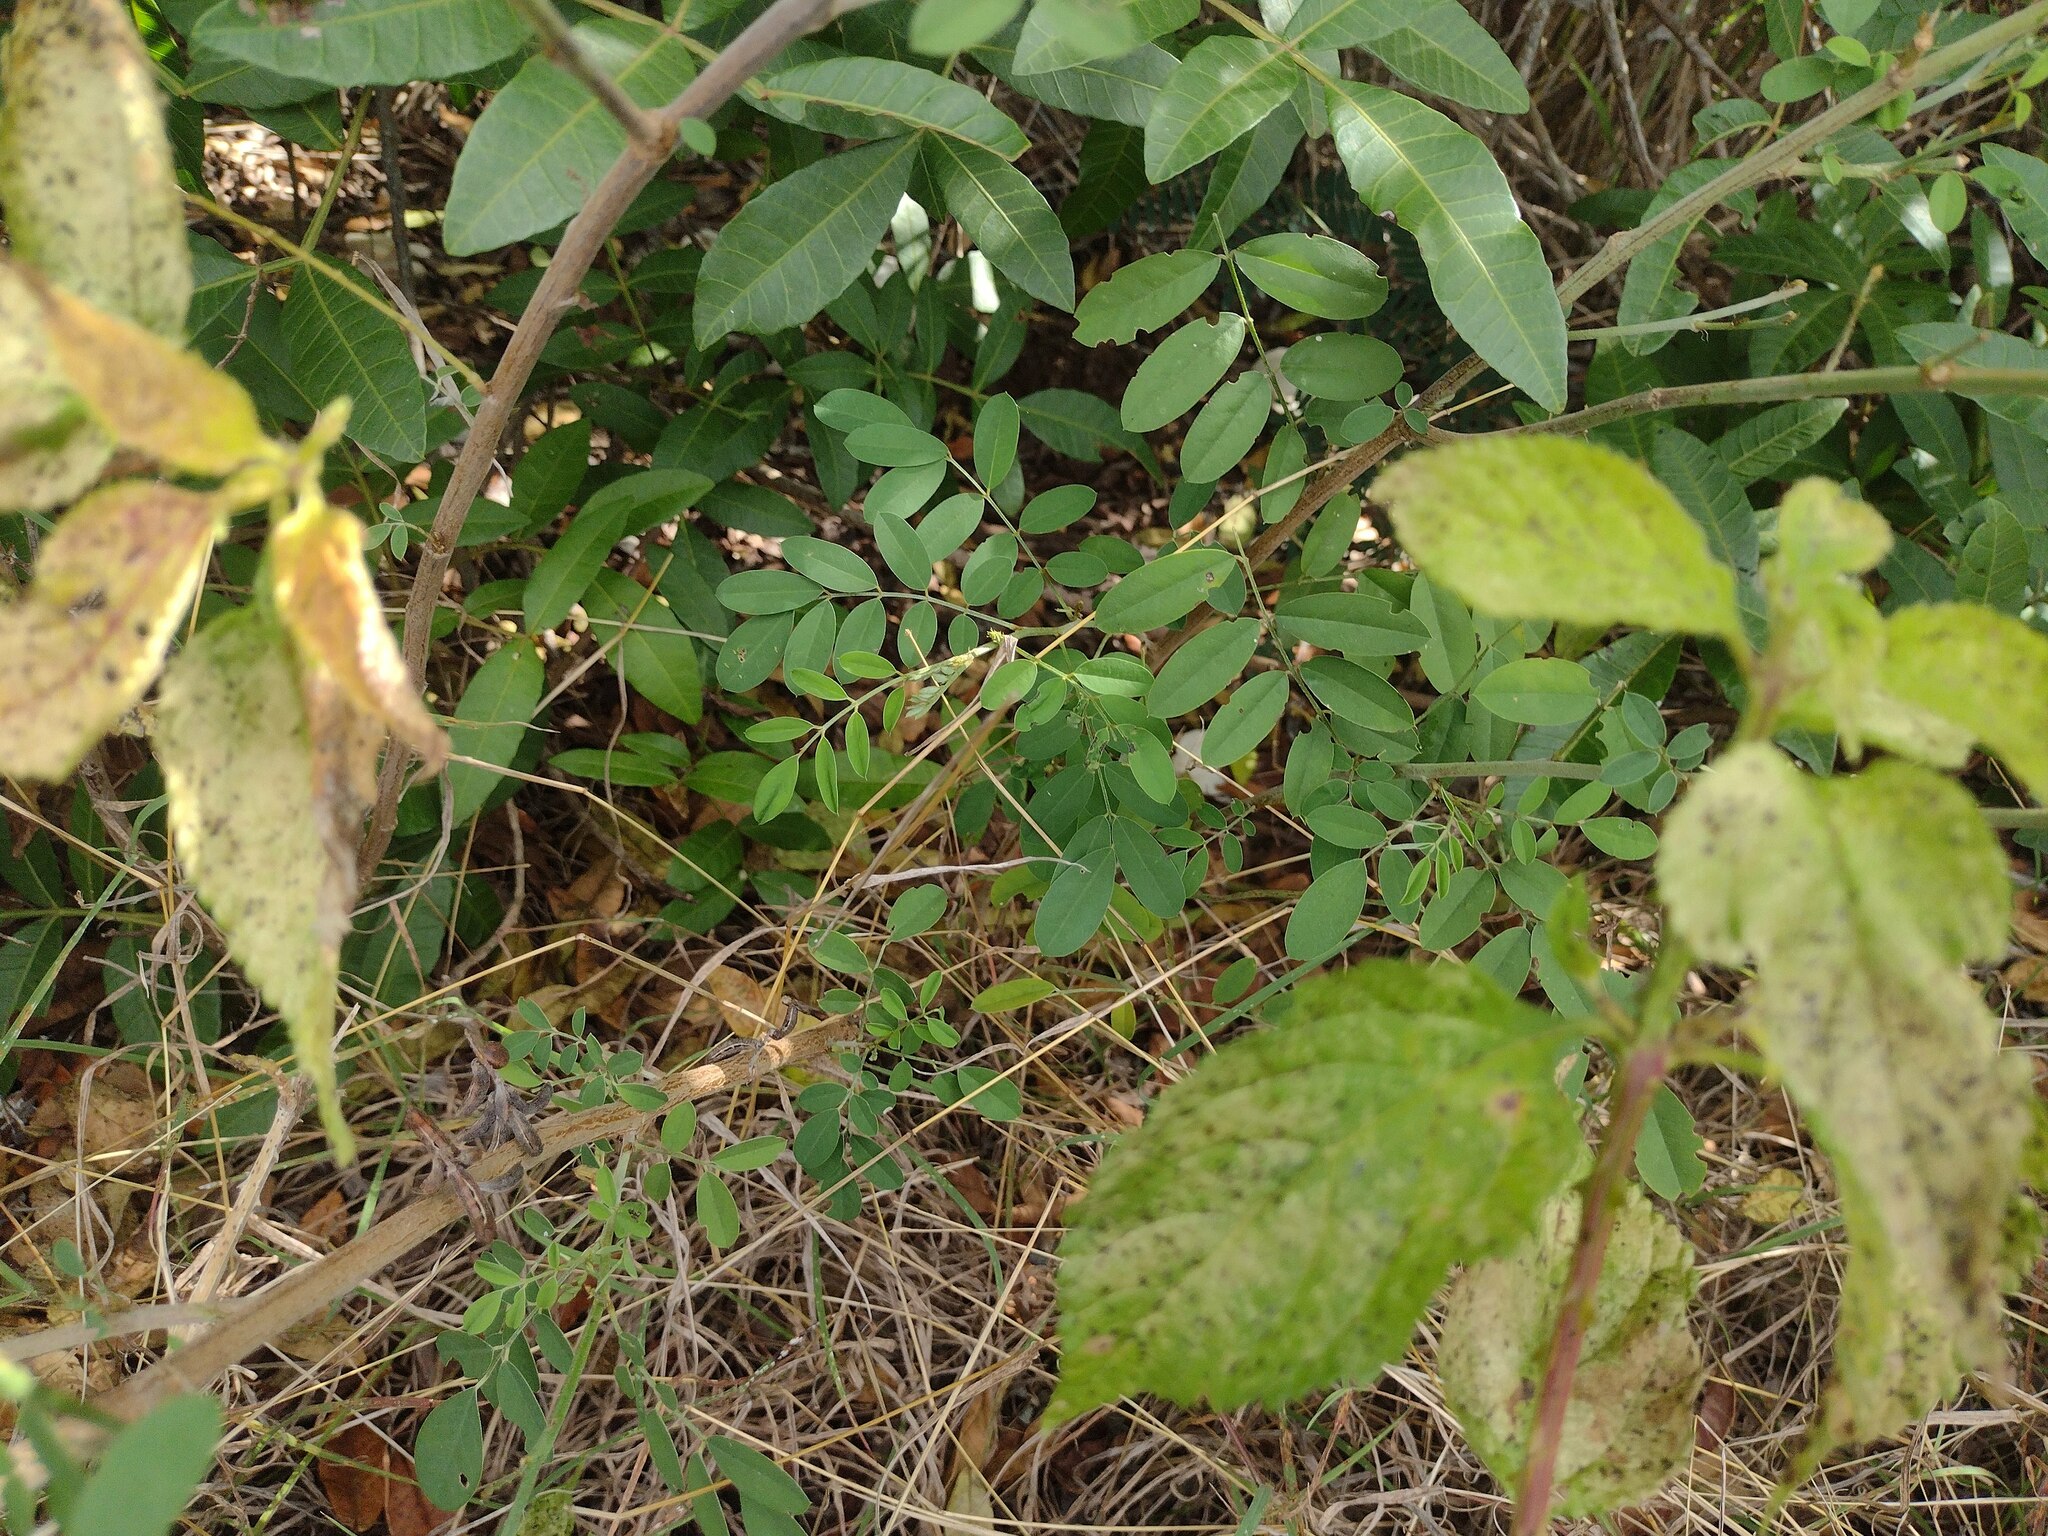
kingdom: Plantae
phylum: Tracheophyta
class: Magnoliopsida
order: Fabales
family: Fabaceae
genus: Indigofera
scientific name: Indigofera suffruticosa
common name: Anil de pasto
